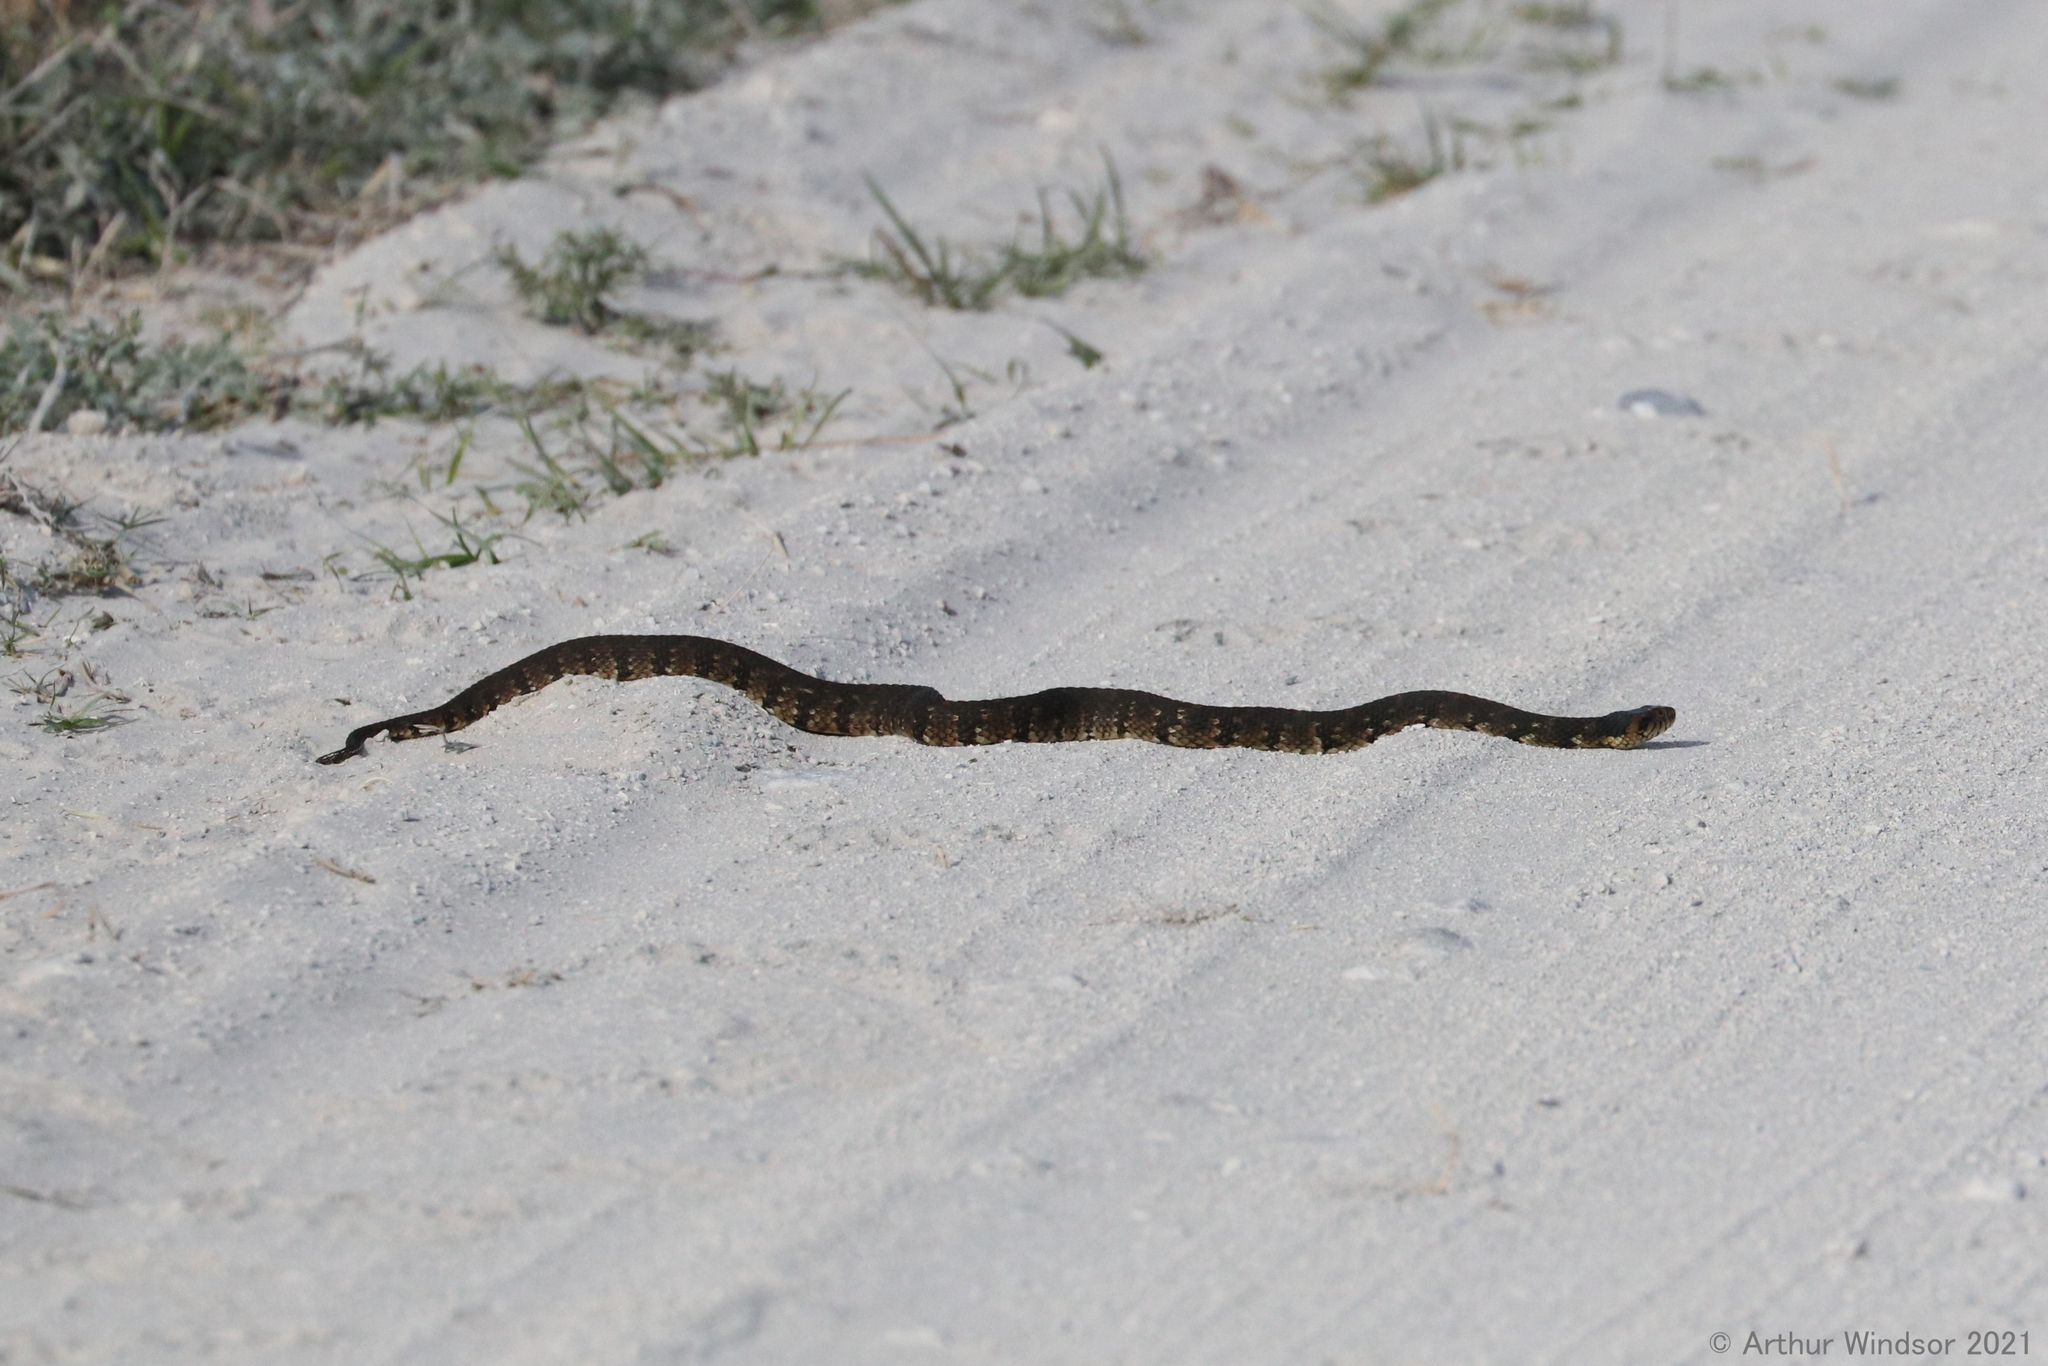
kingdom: Animalia
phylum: Chordata
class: Squamata
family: Colubridae
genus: Nerodia
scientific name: Nerodia fasciata
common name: Southern water snake
